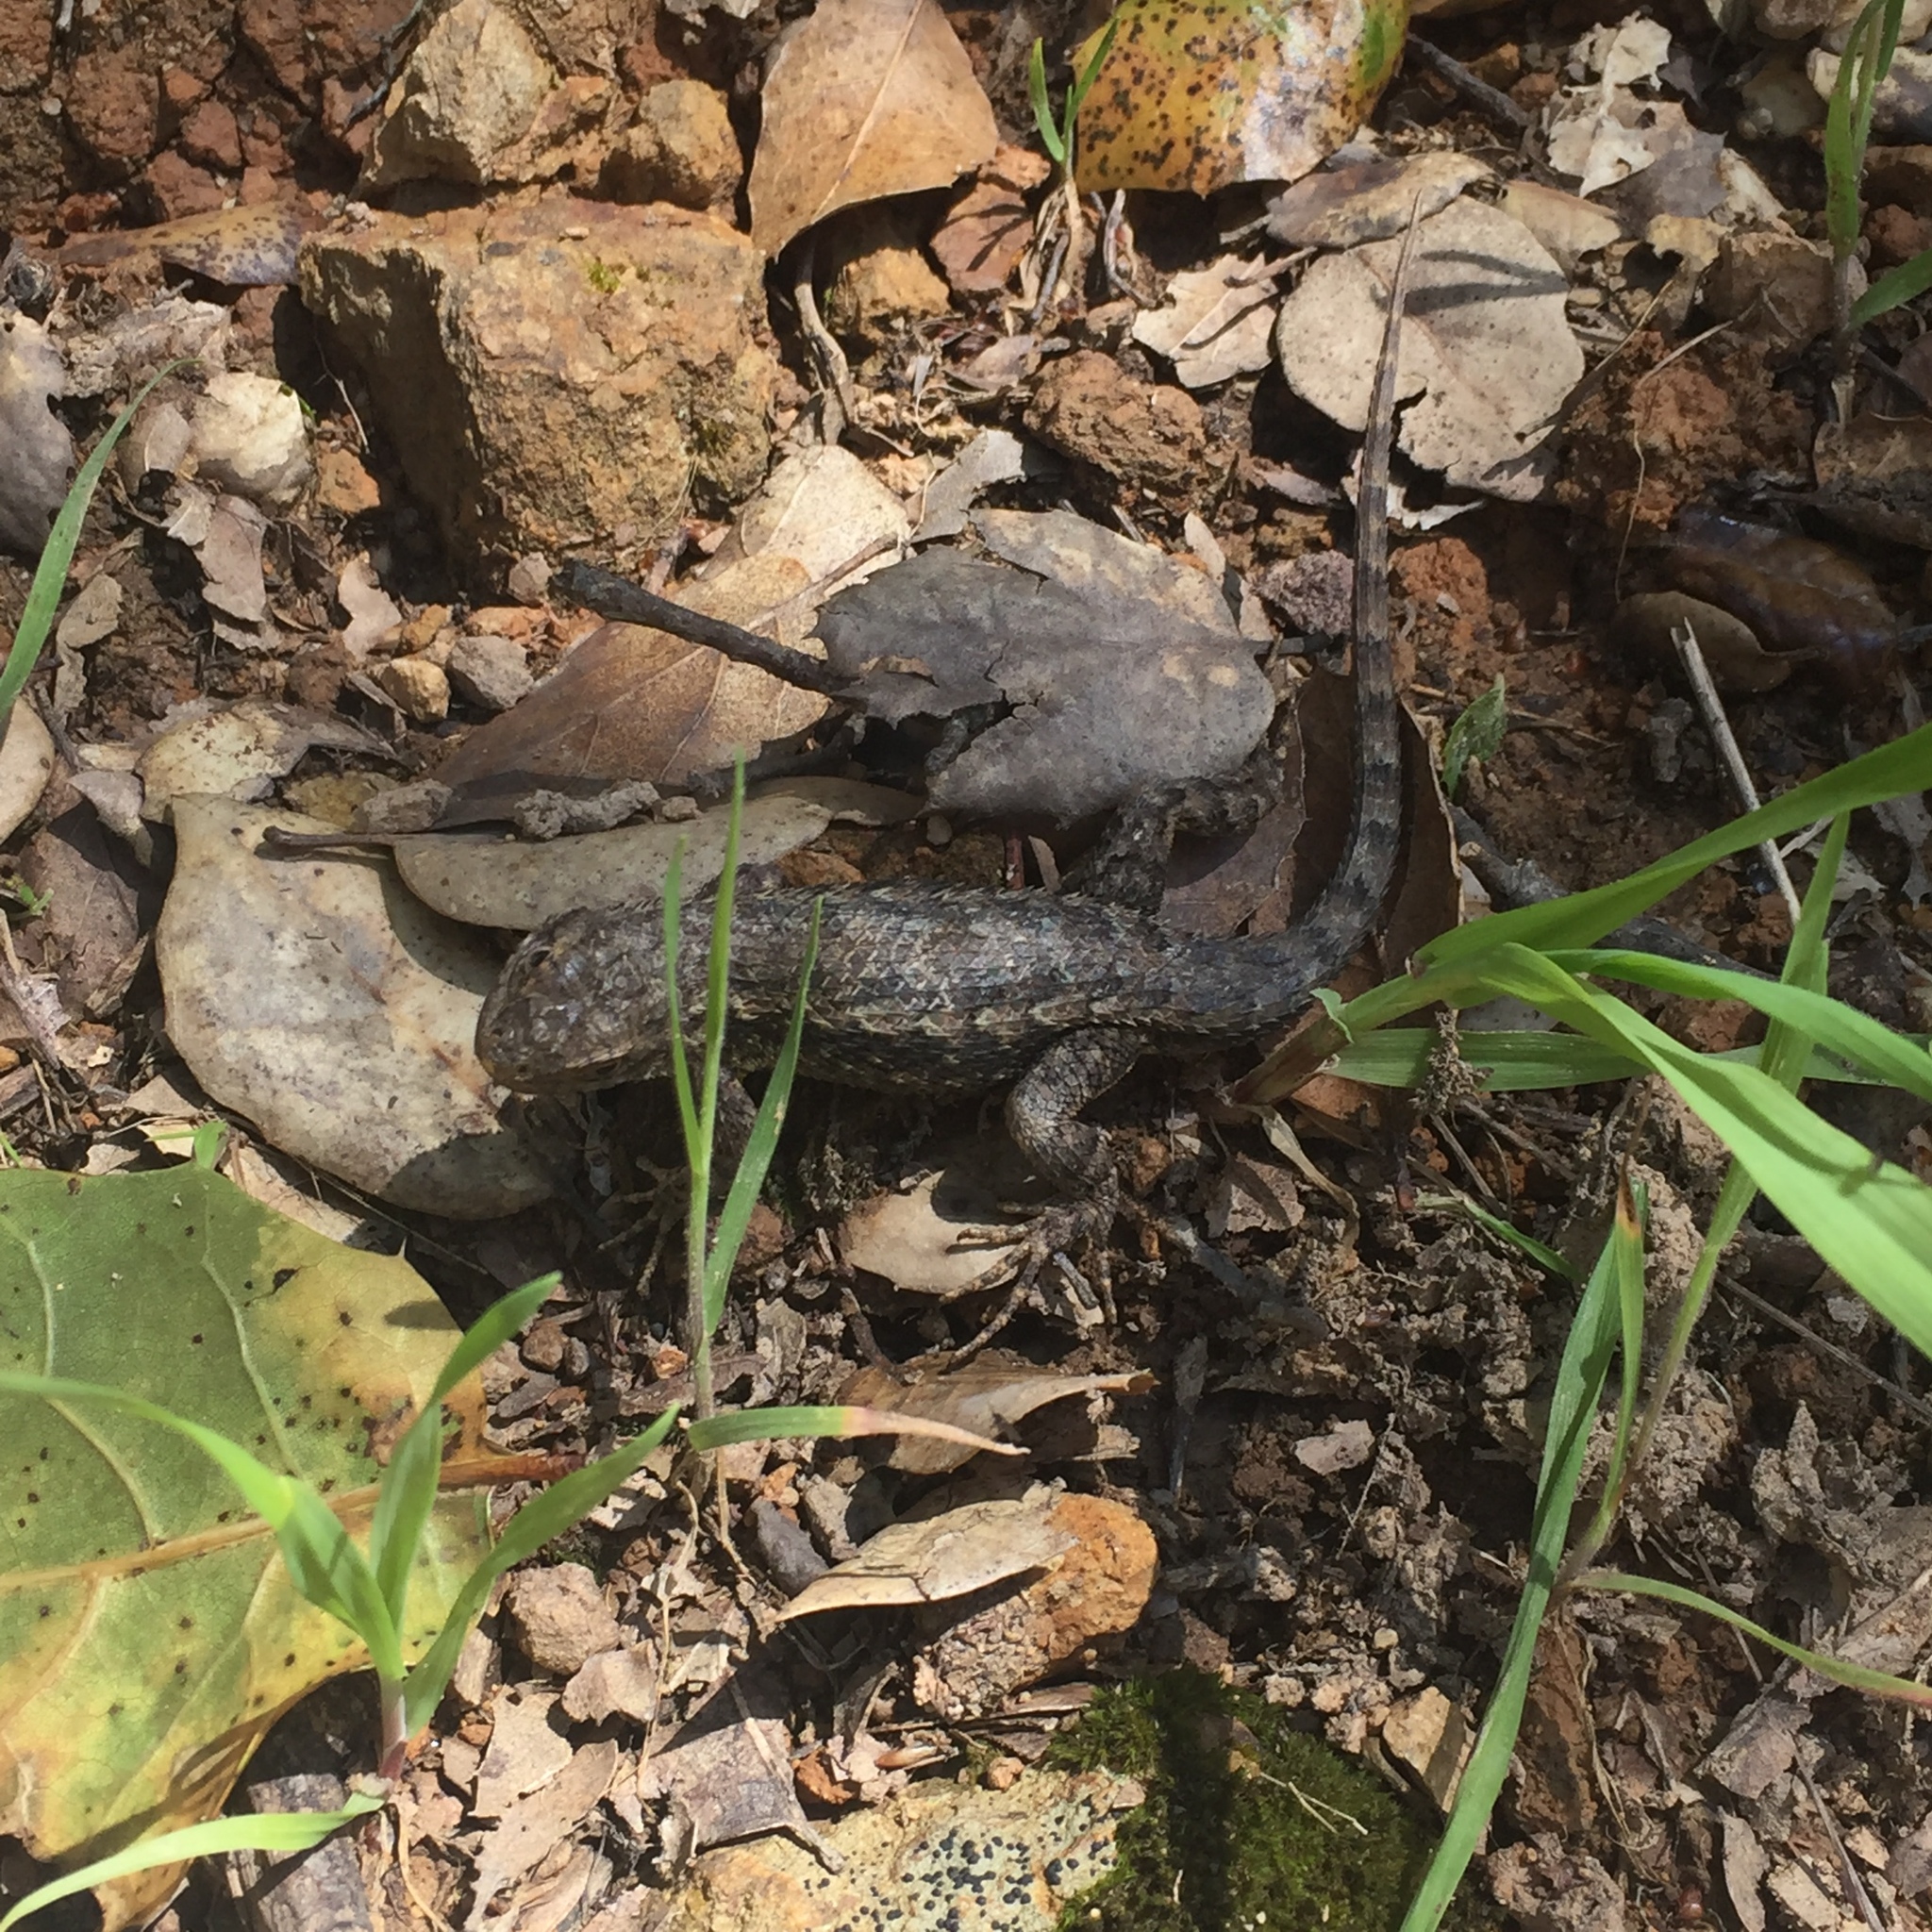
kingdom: Animalia
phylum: Chordata
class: Squamata
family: Phrynosomatidae
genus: Sceloporus
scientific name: Sceloporus occidentalis
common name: Western fence lizard
